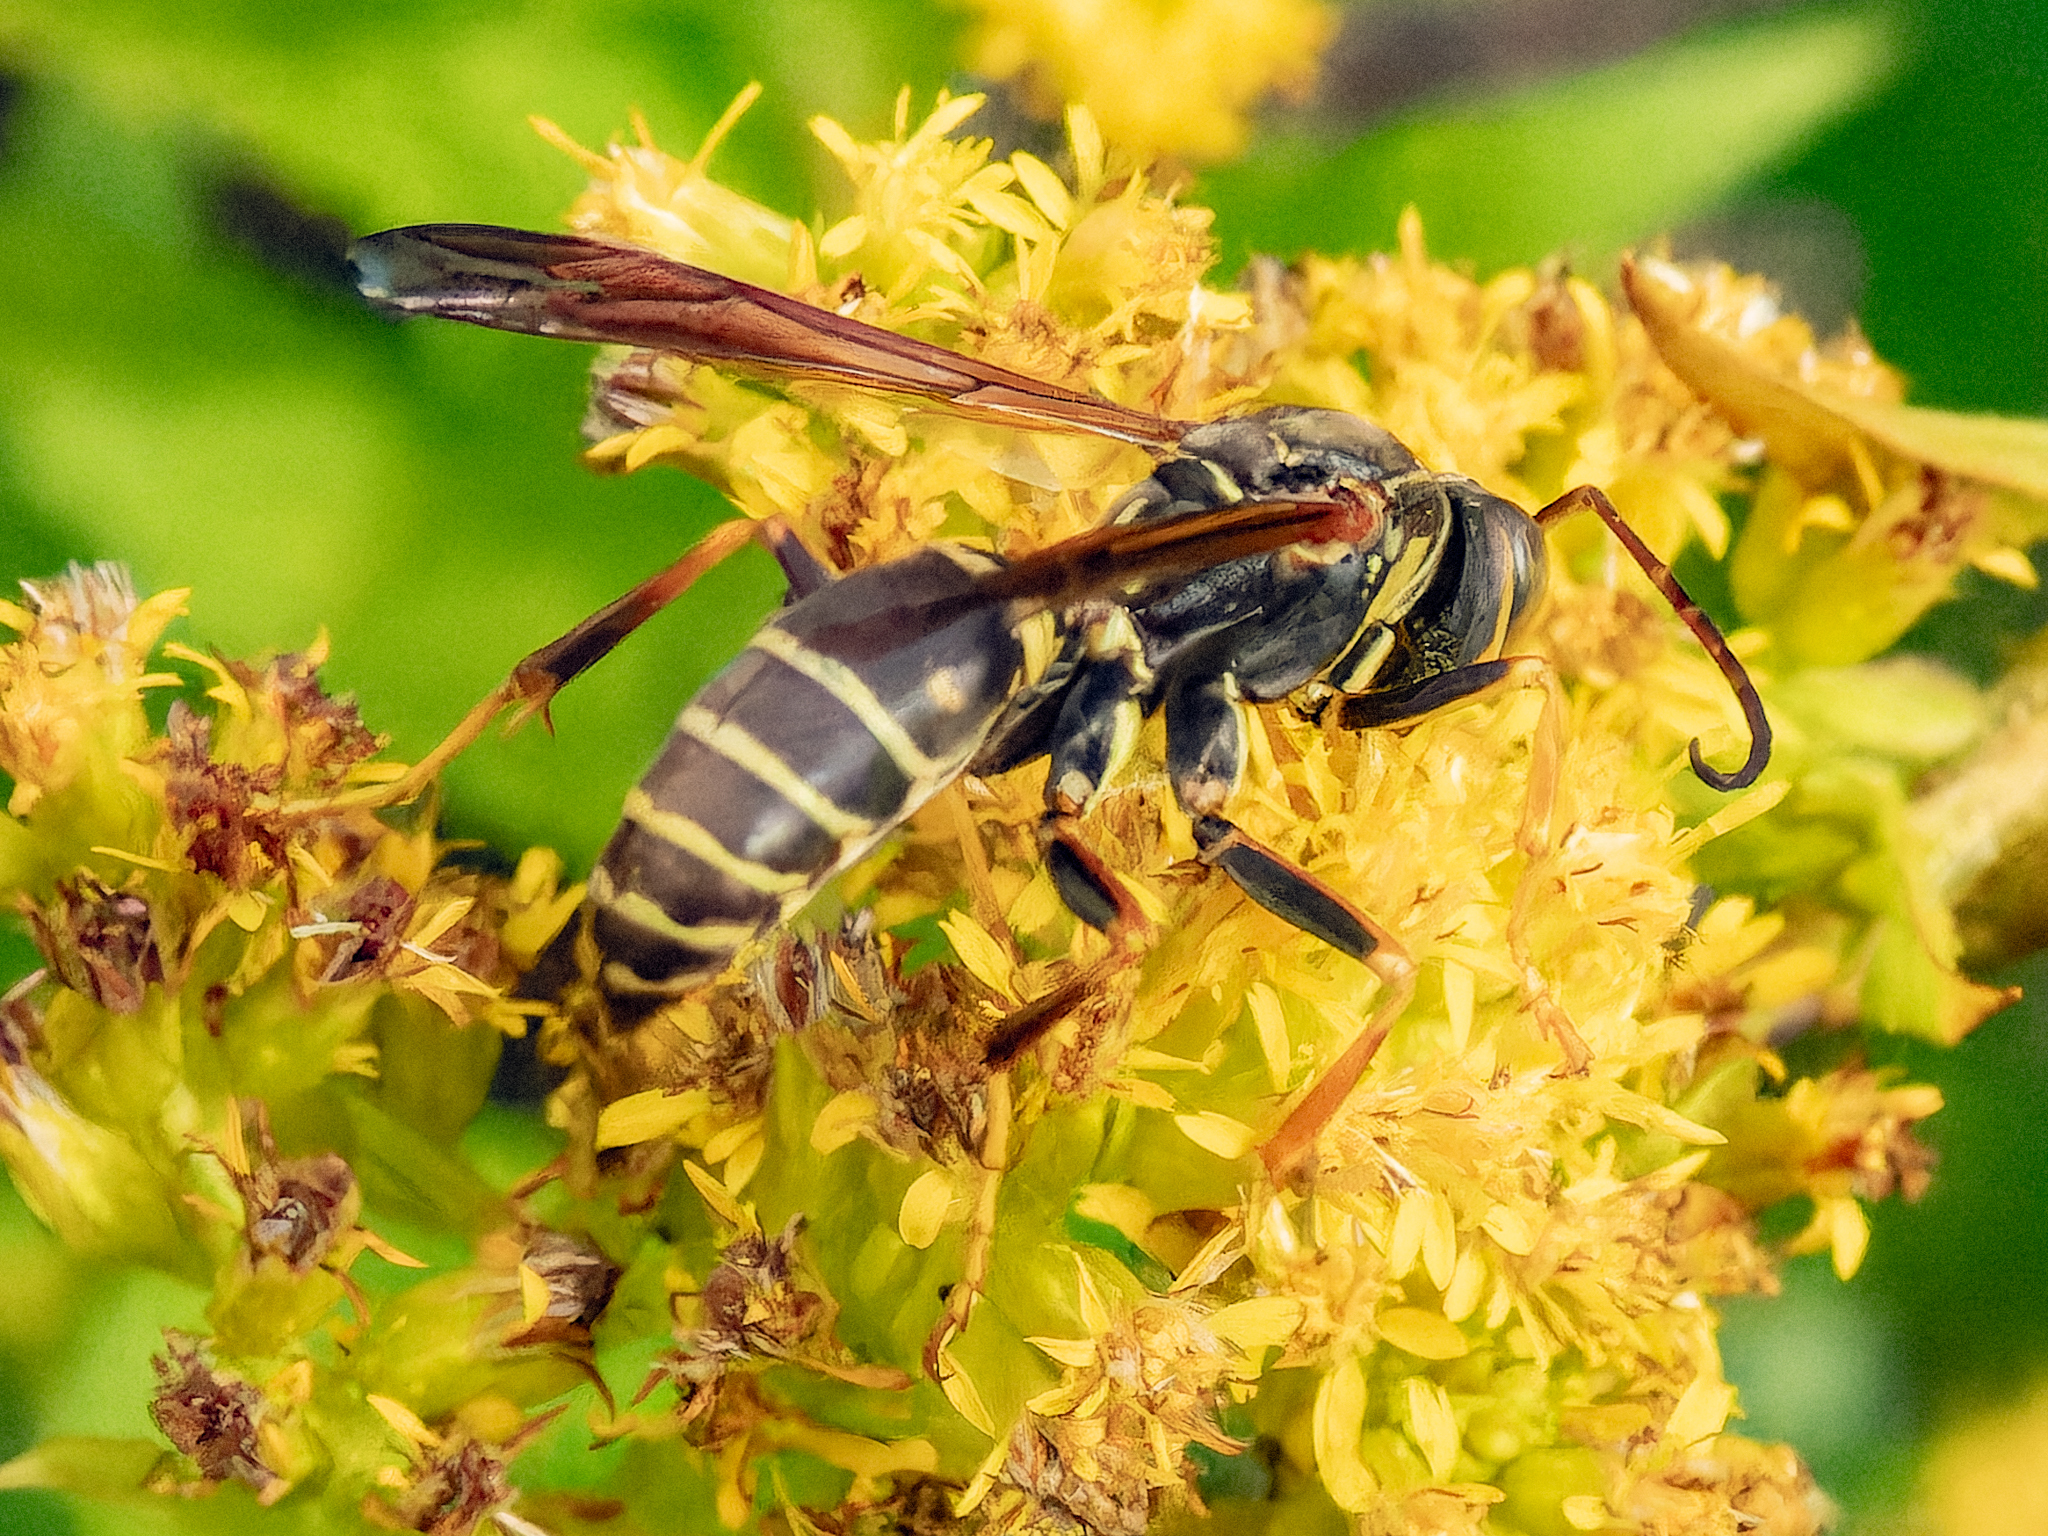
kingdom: Animalia
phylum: Arthropoda
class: Insecta
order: Hymenoptera
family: Eumenidae
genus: Polistes
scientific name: Polistes fuscatus
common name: Dark paper wasp
